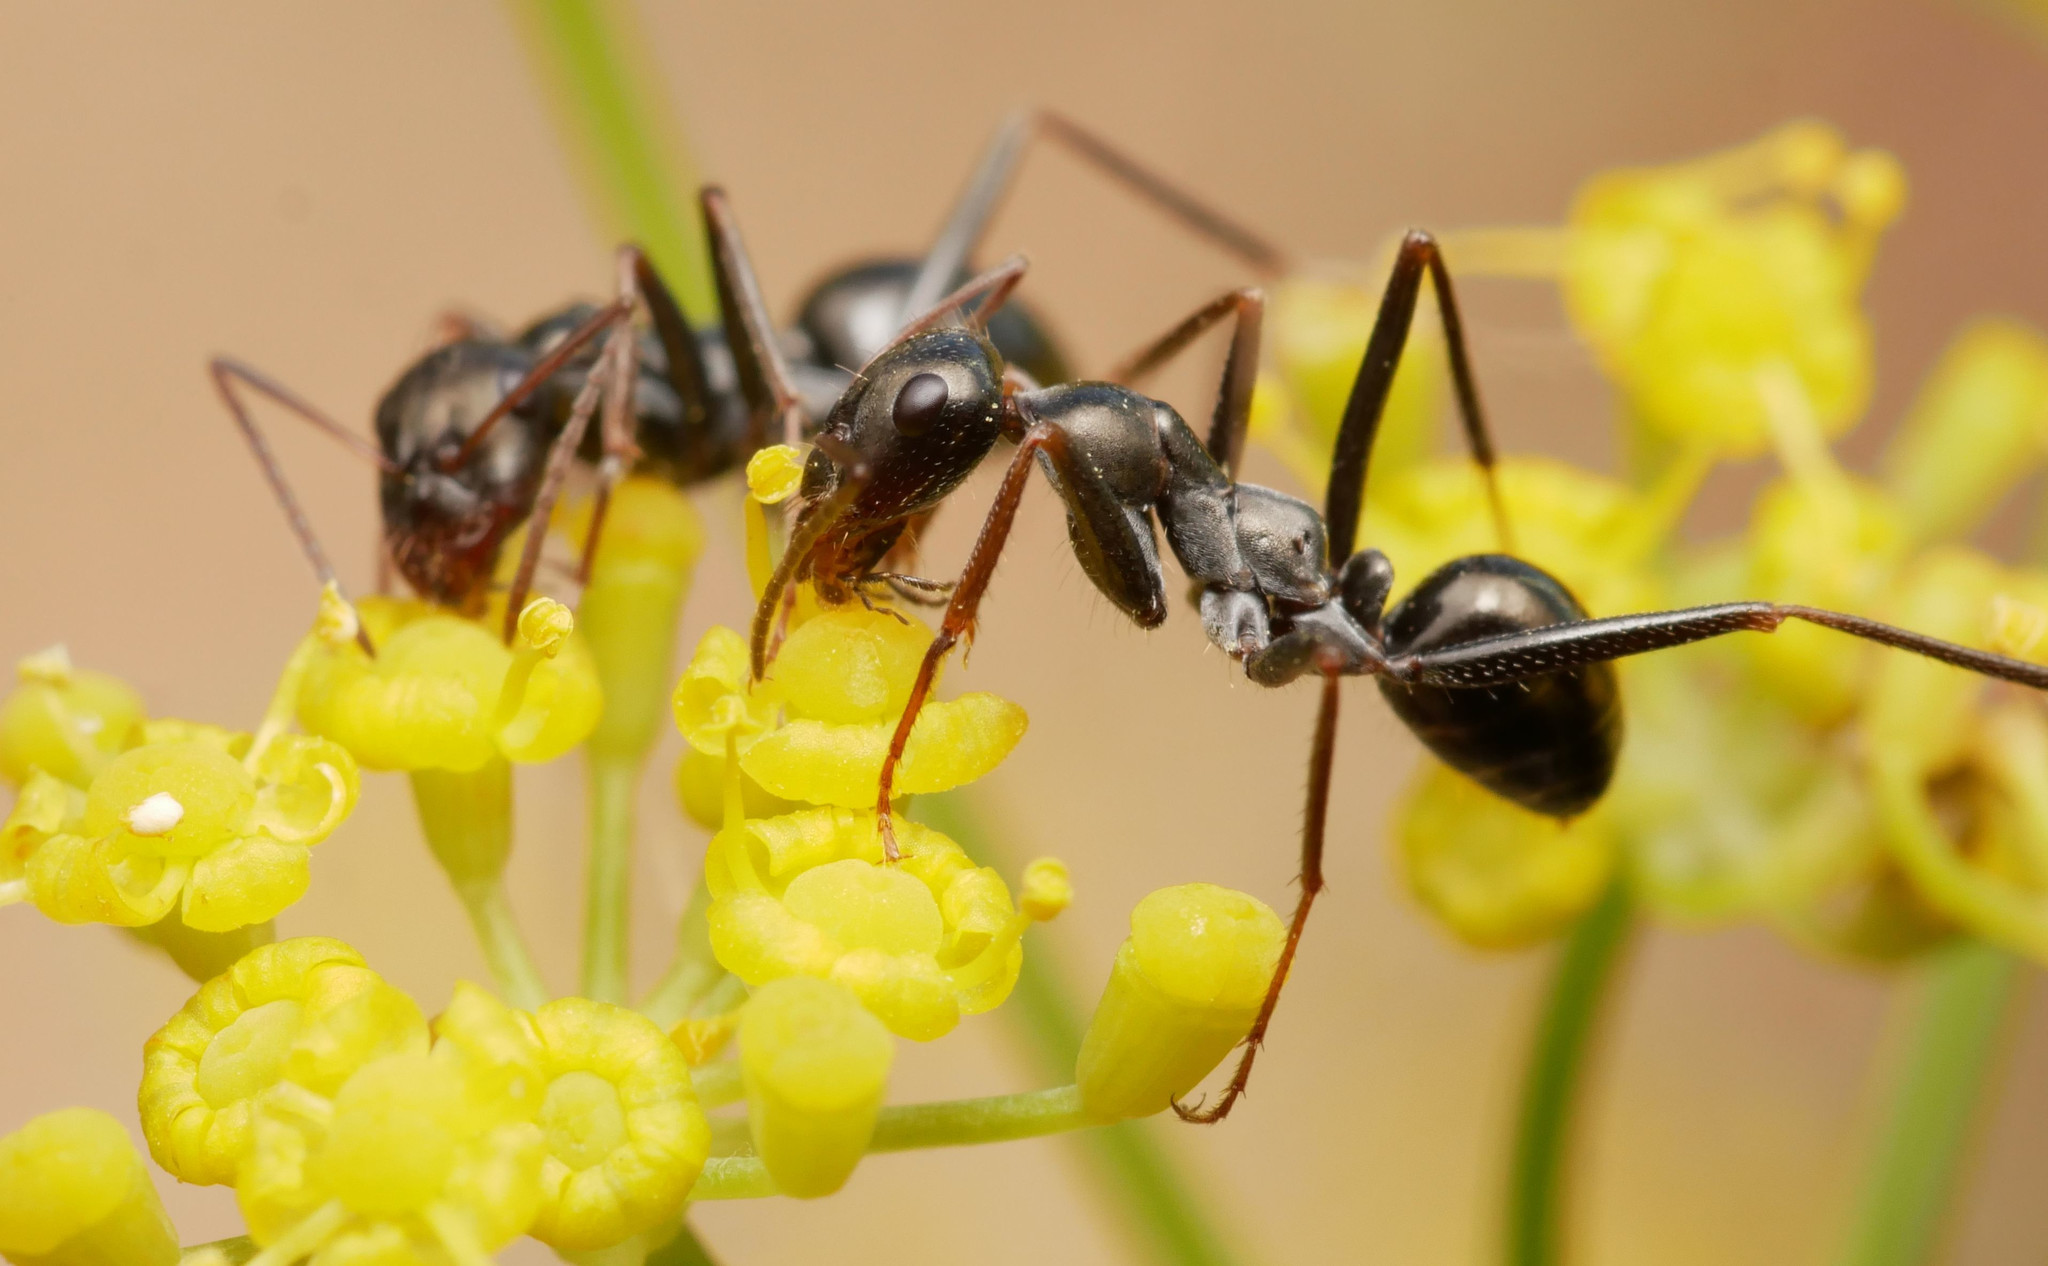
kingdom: Animalia
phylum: Arthropoda
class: Insecta
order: Hymenoptera
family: Formicidae
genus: Cataglyphis
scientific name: Cataglyphis piliscapus
